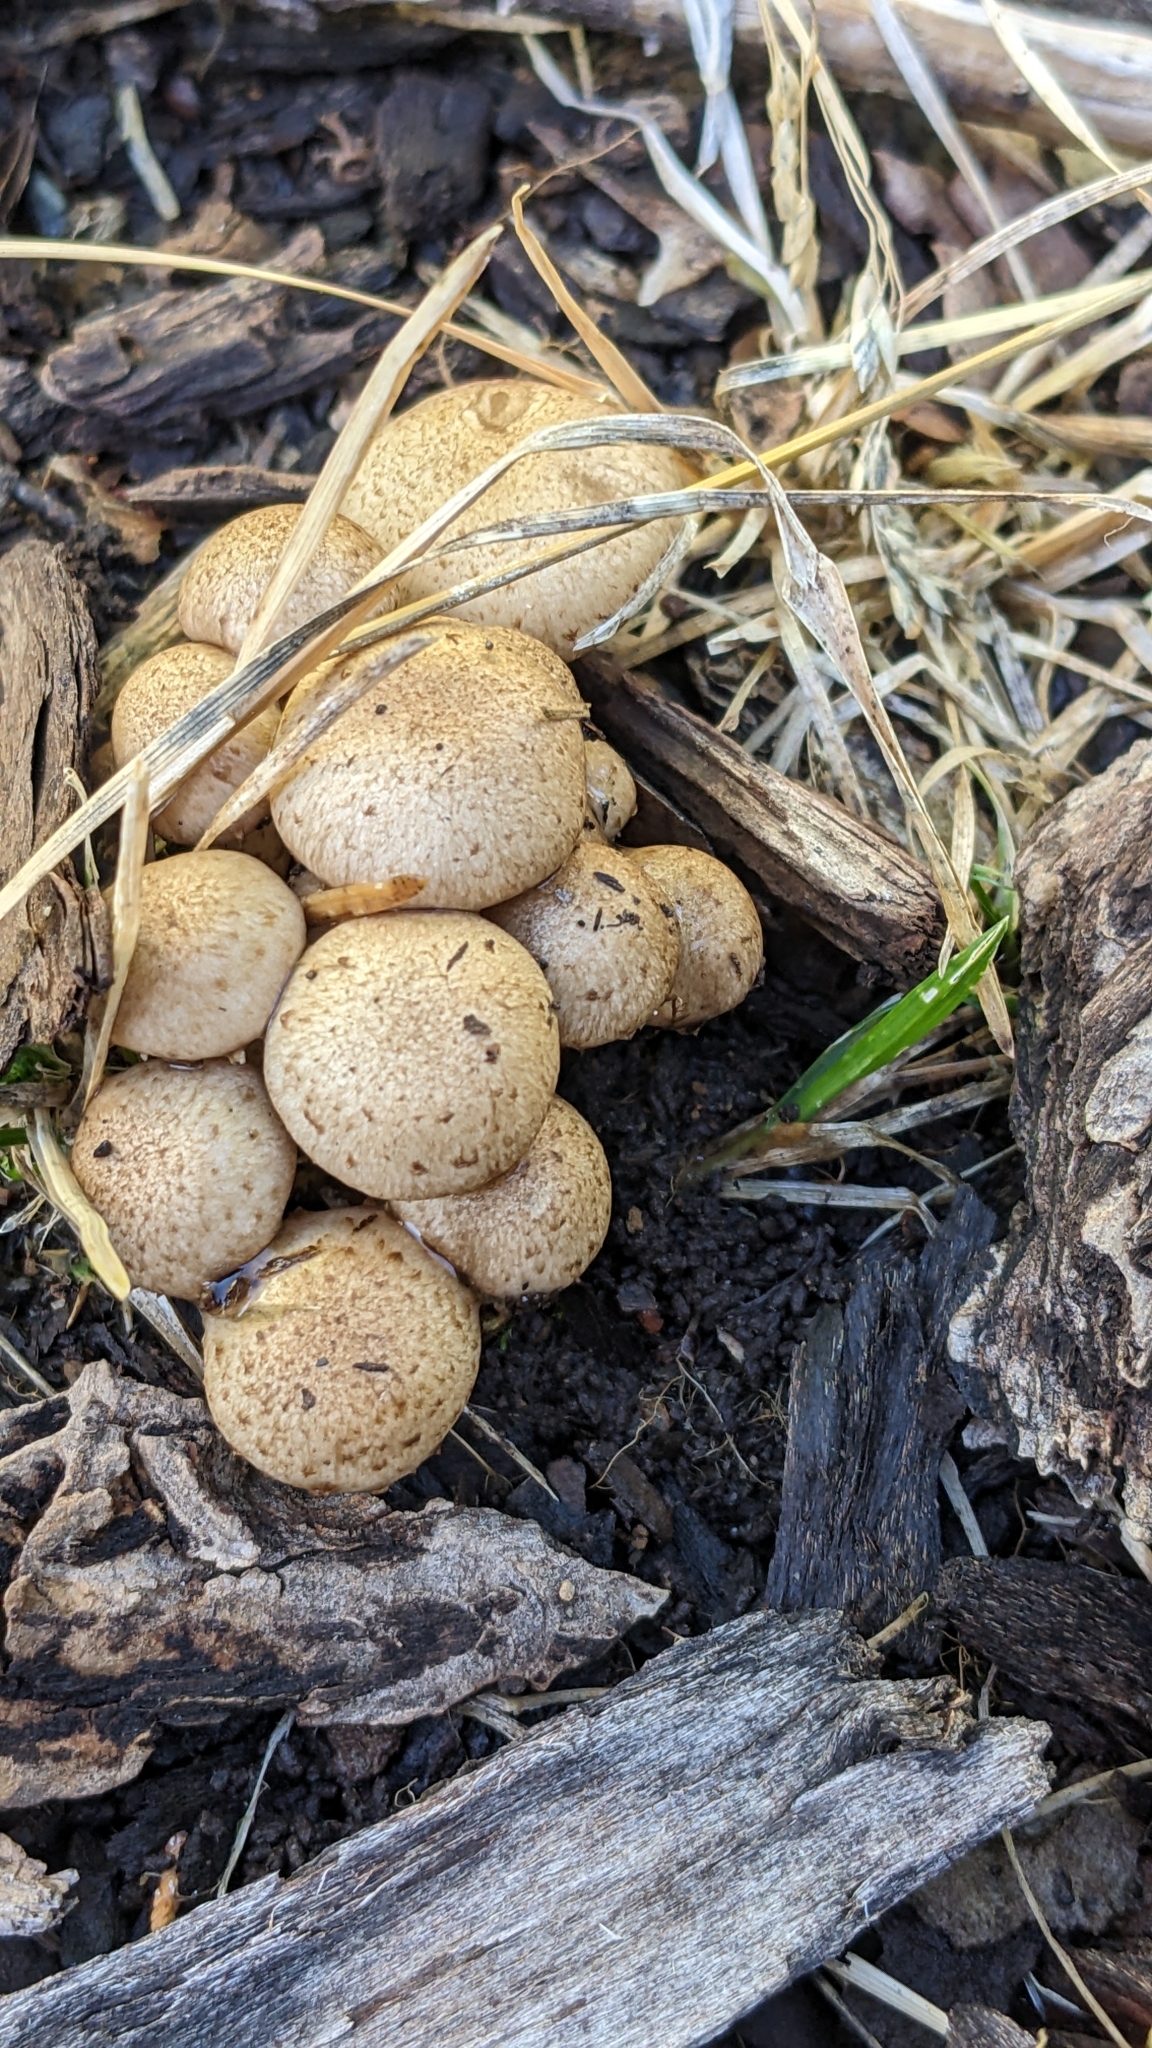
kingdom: Fungi
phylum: Basidiomycota
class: Agaricomycetes
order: Agaricales
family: Strophariaceae
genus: Pholiota
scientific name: Pholiota terrestris
